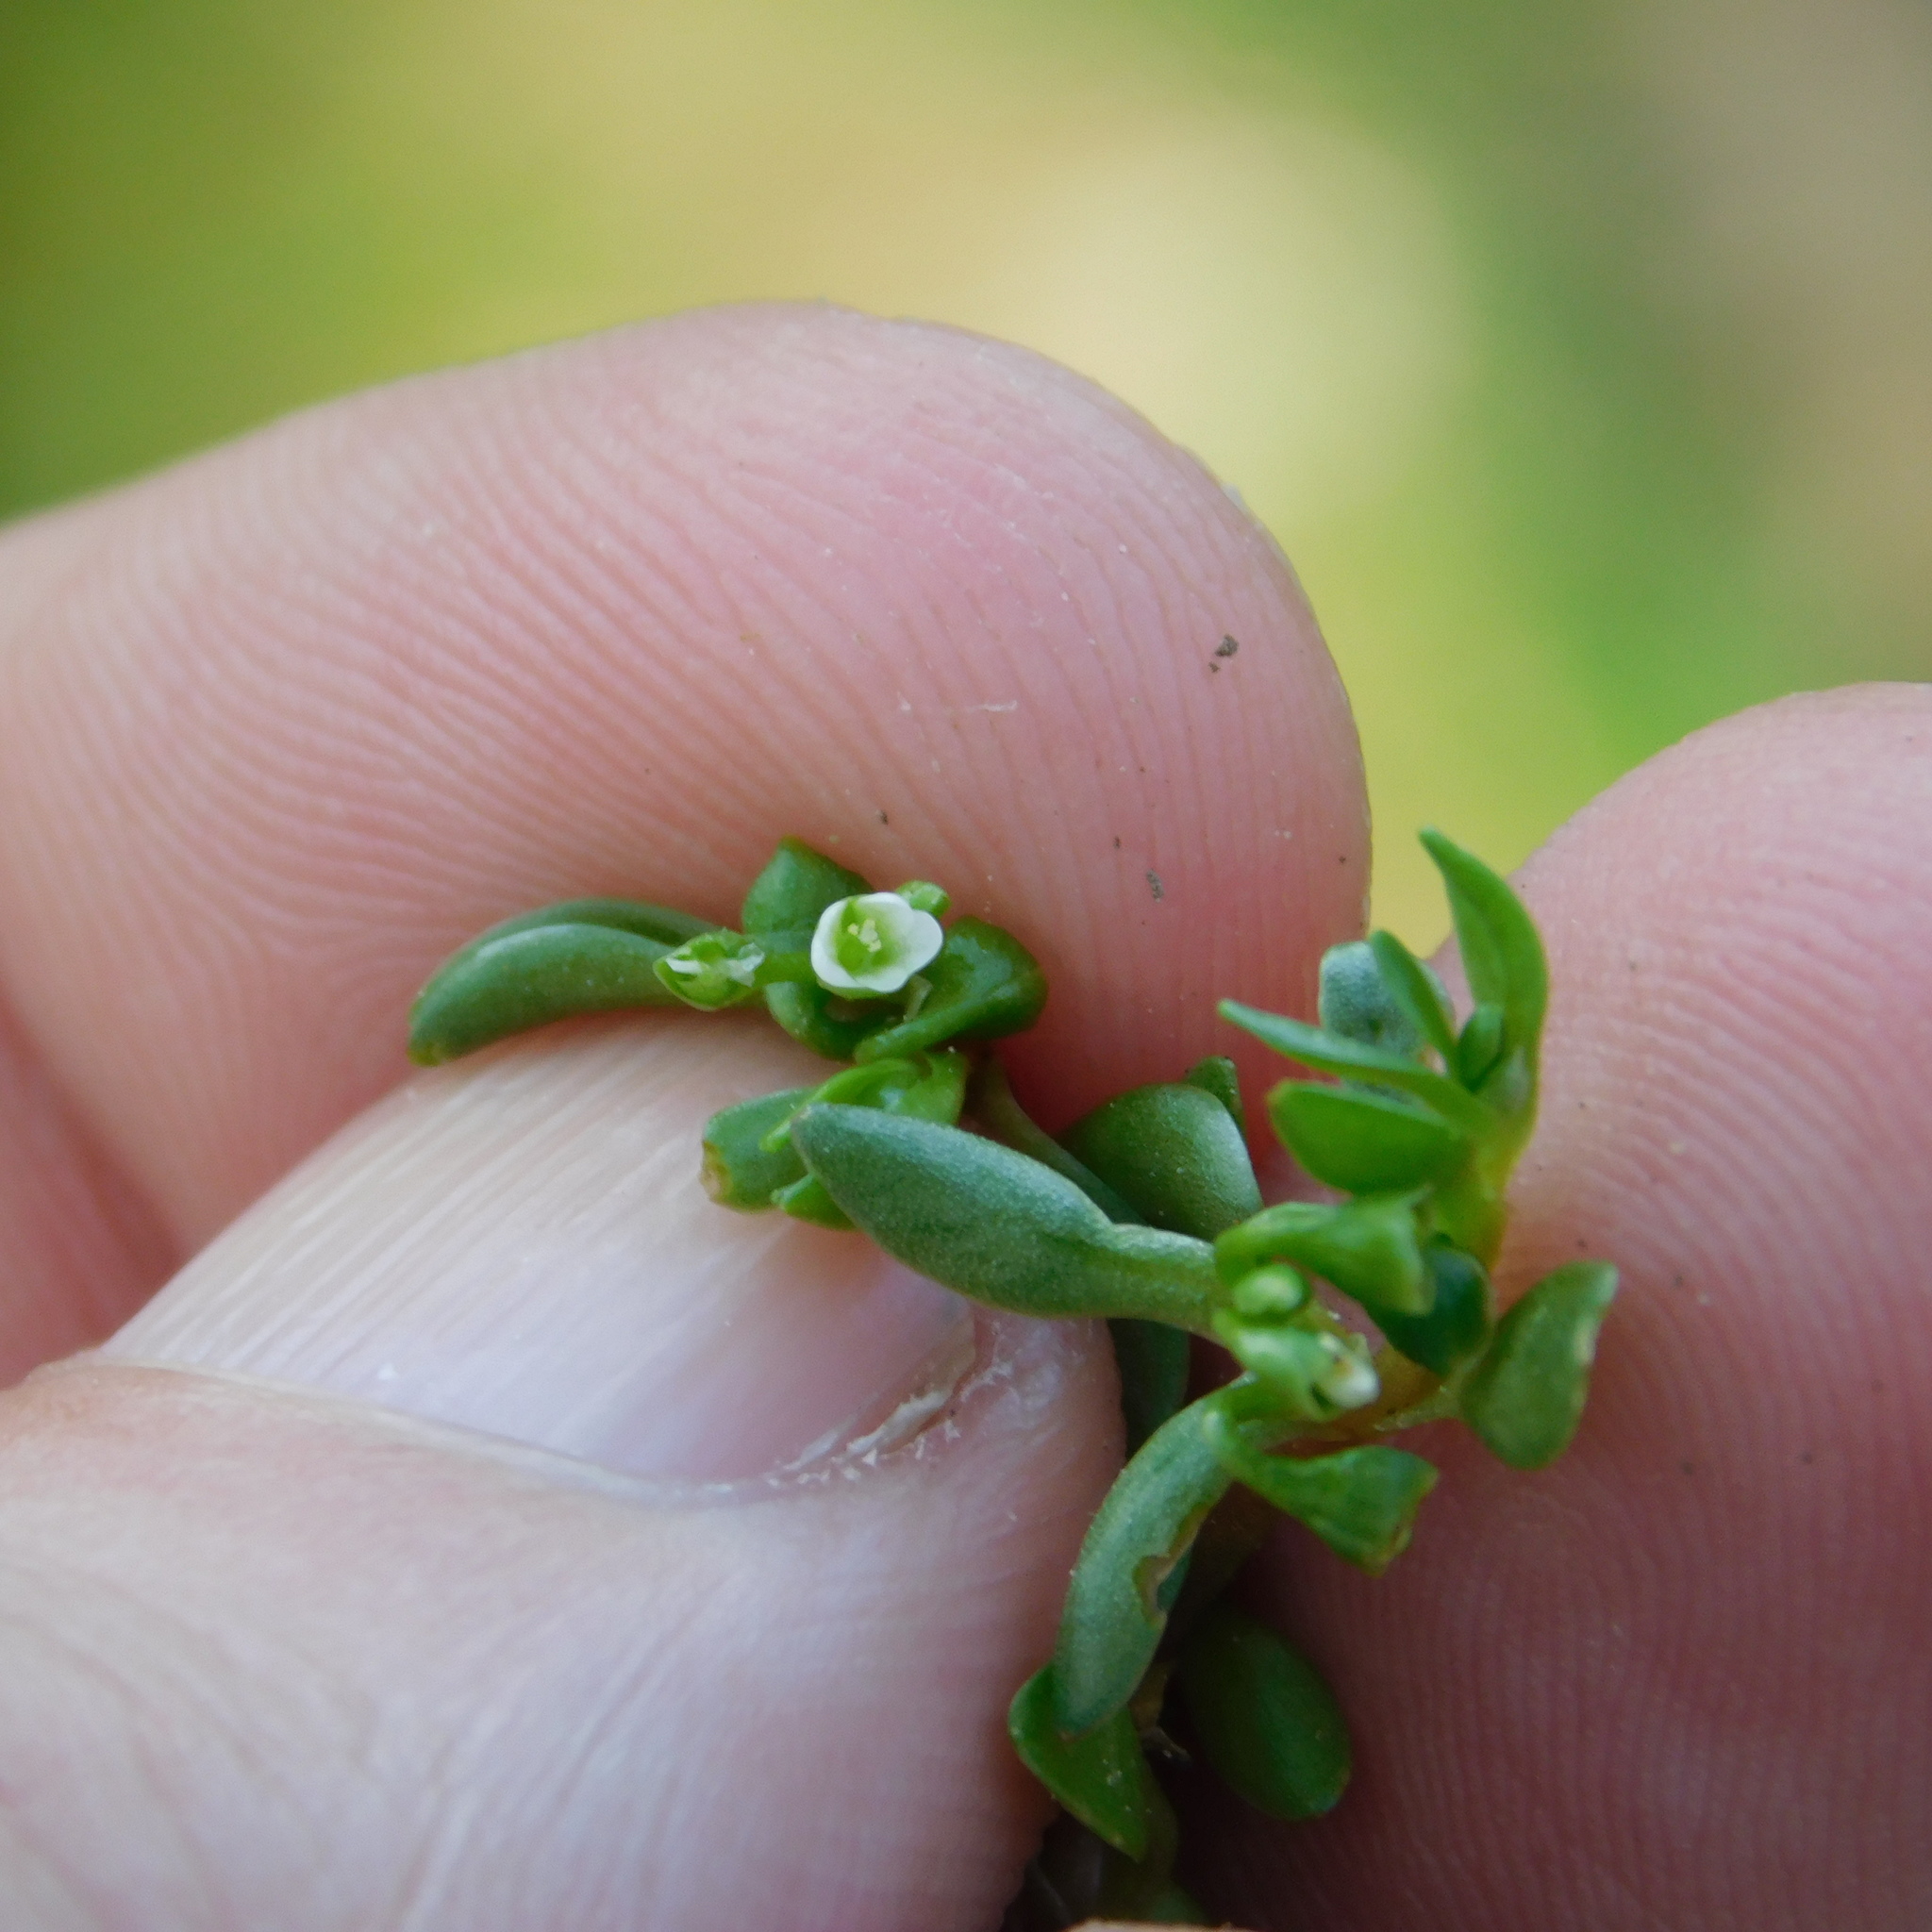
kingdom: Plantae
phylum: Tracheophyta
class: Magnoliopsida
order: Caryophyllales
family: Montiaceae
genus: Montia
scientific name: Montia
